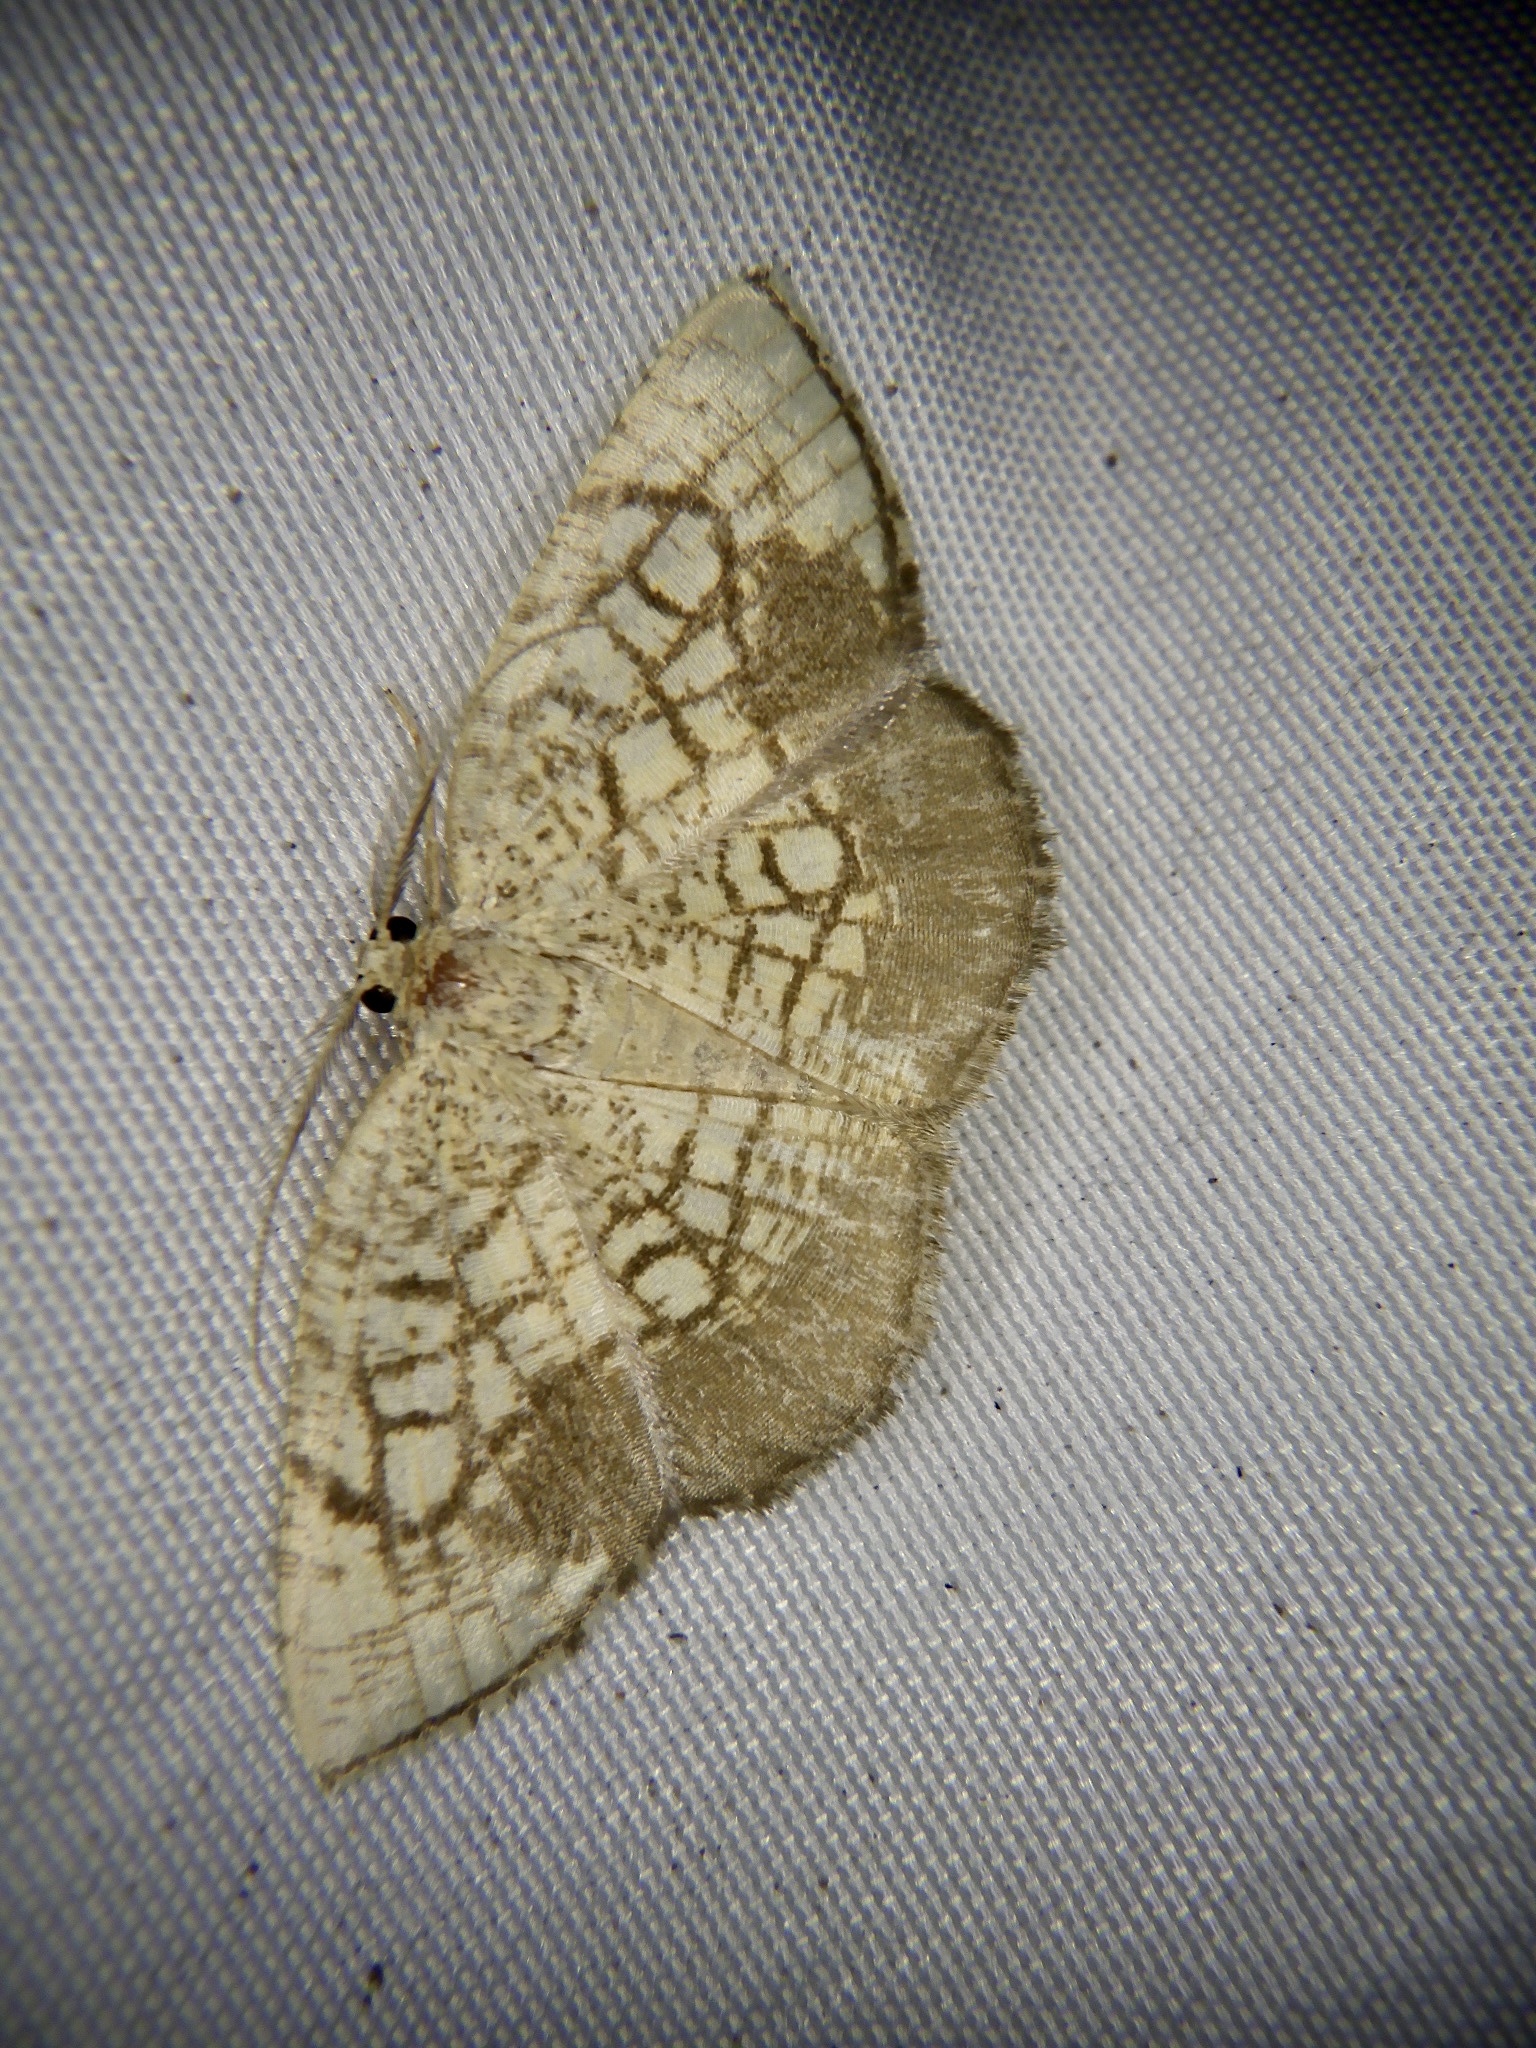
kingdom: Animalia
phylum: Arthropoda
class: Insecta
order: Lepidoptera
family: Geometridae
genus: Cabera
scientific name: Cabera griseolimbata
